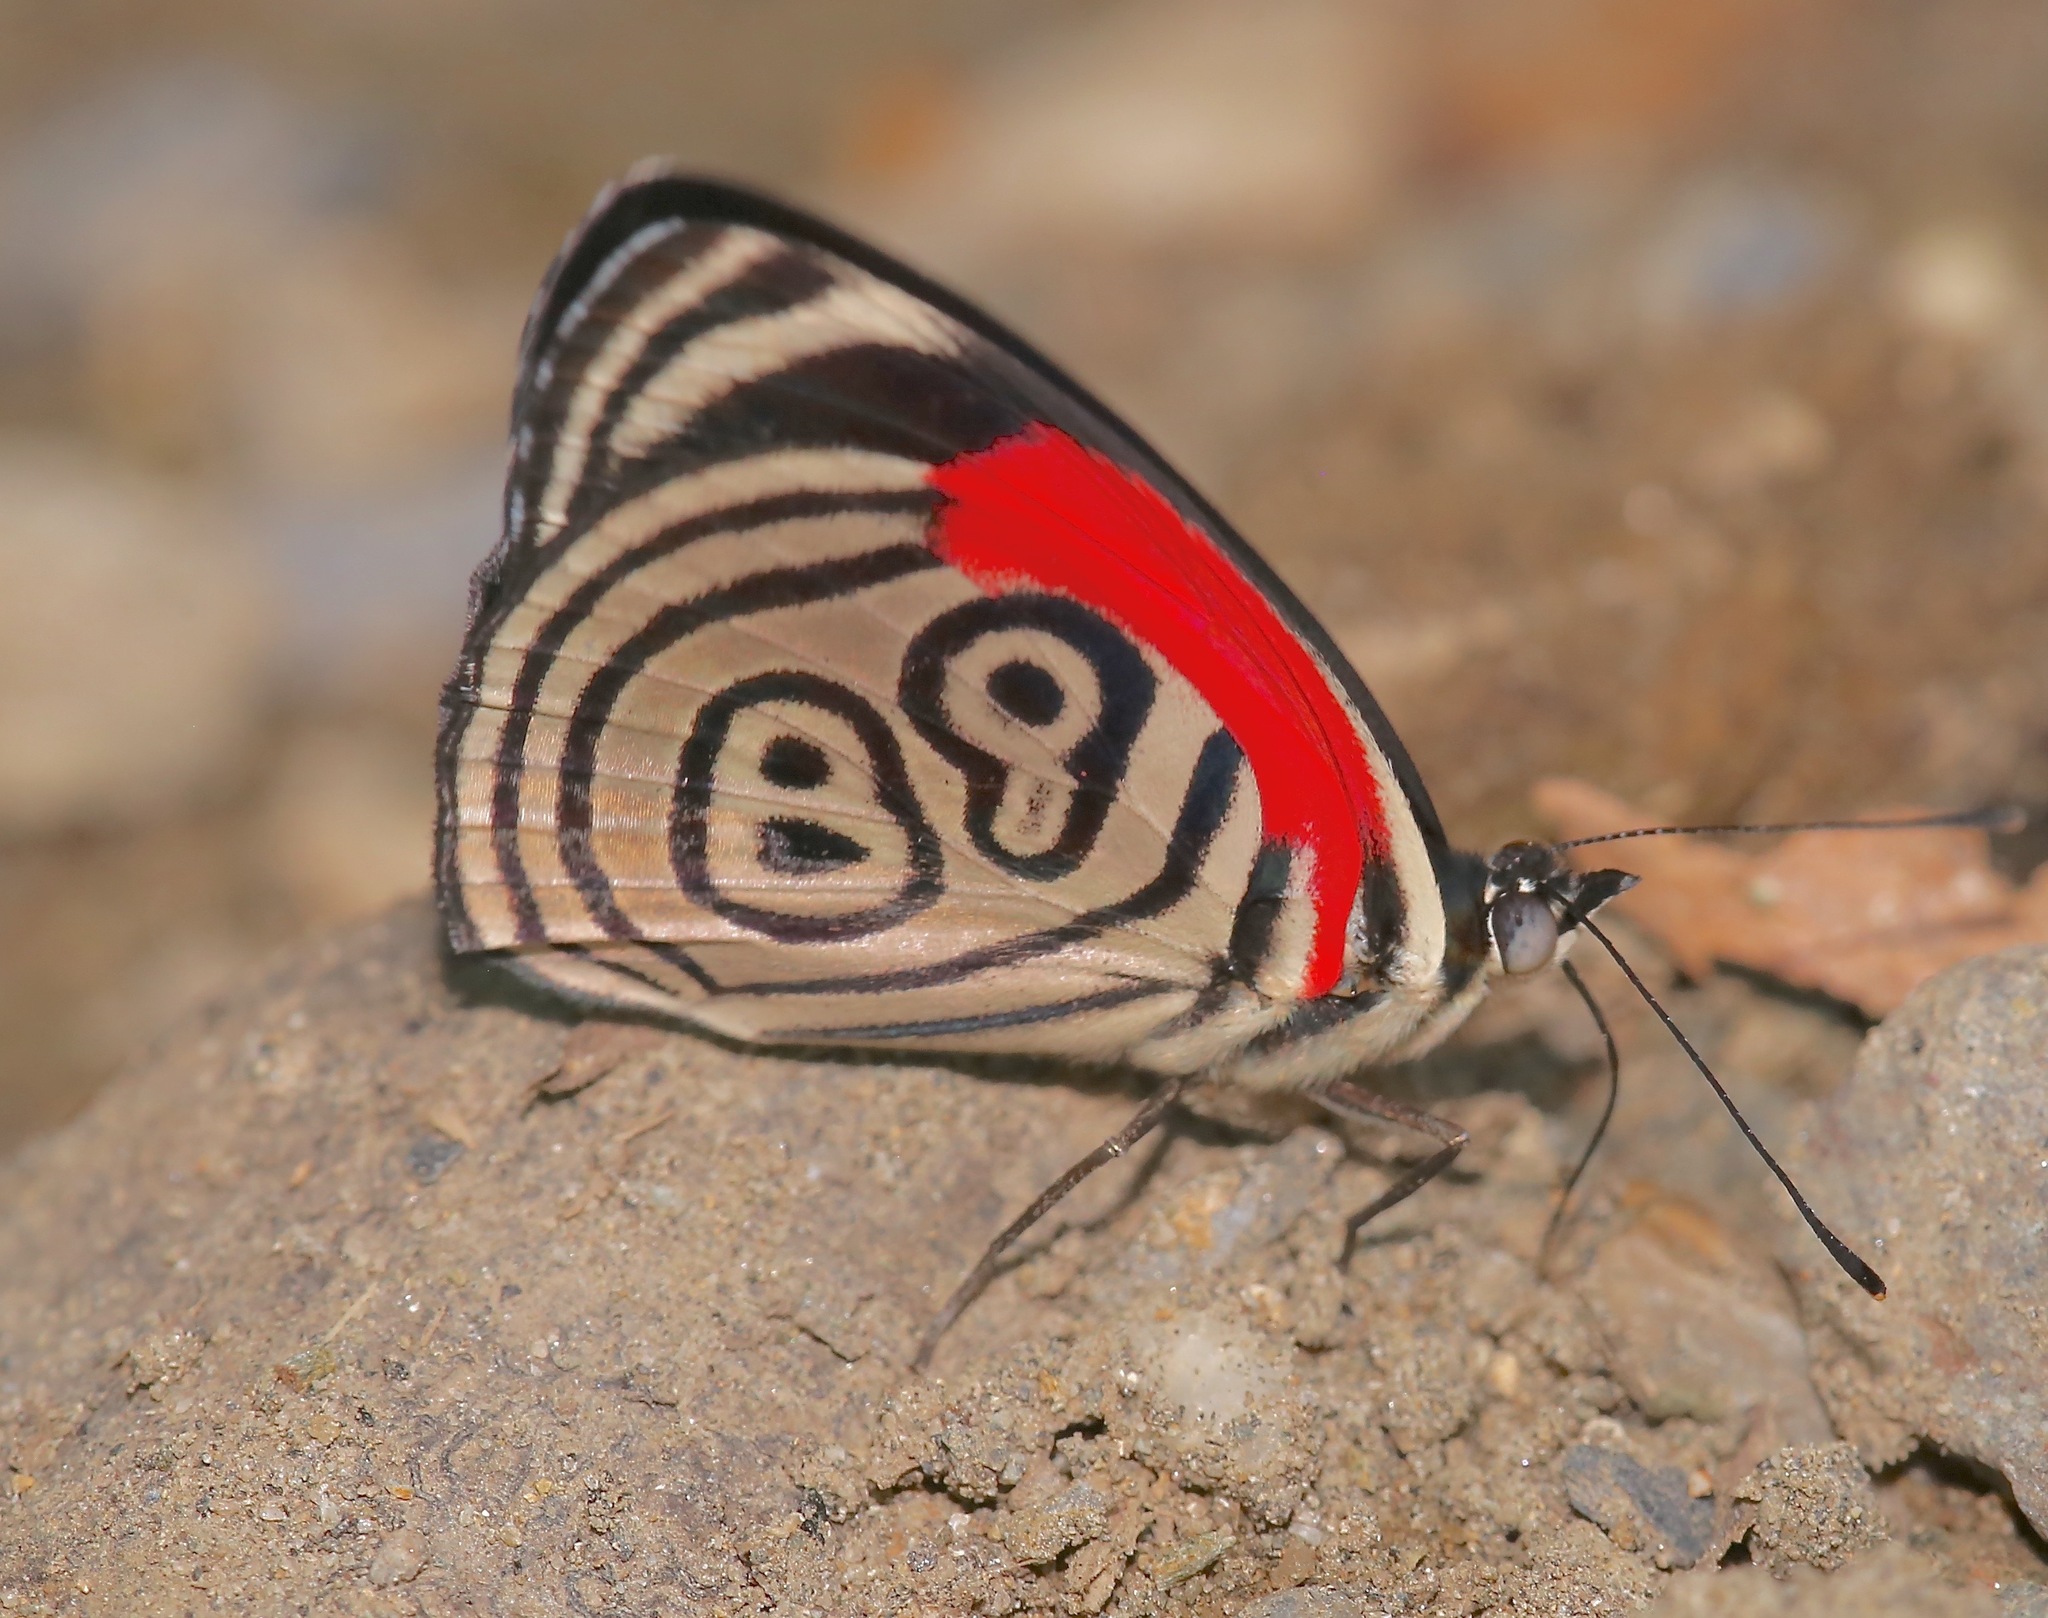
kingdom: Animalia
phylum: Arthropoda
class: Insecta
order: Lepidoptera
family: Nymphalidae
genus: Diaethria
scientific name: Diaethria clymena
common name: Widespread eighty-eight
